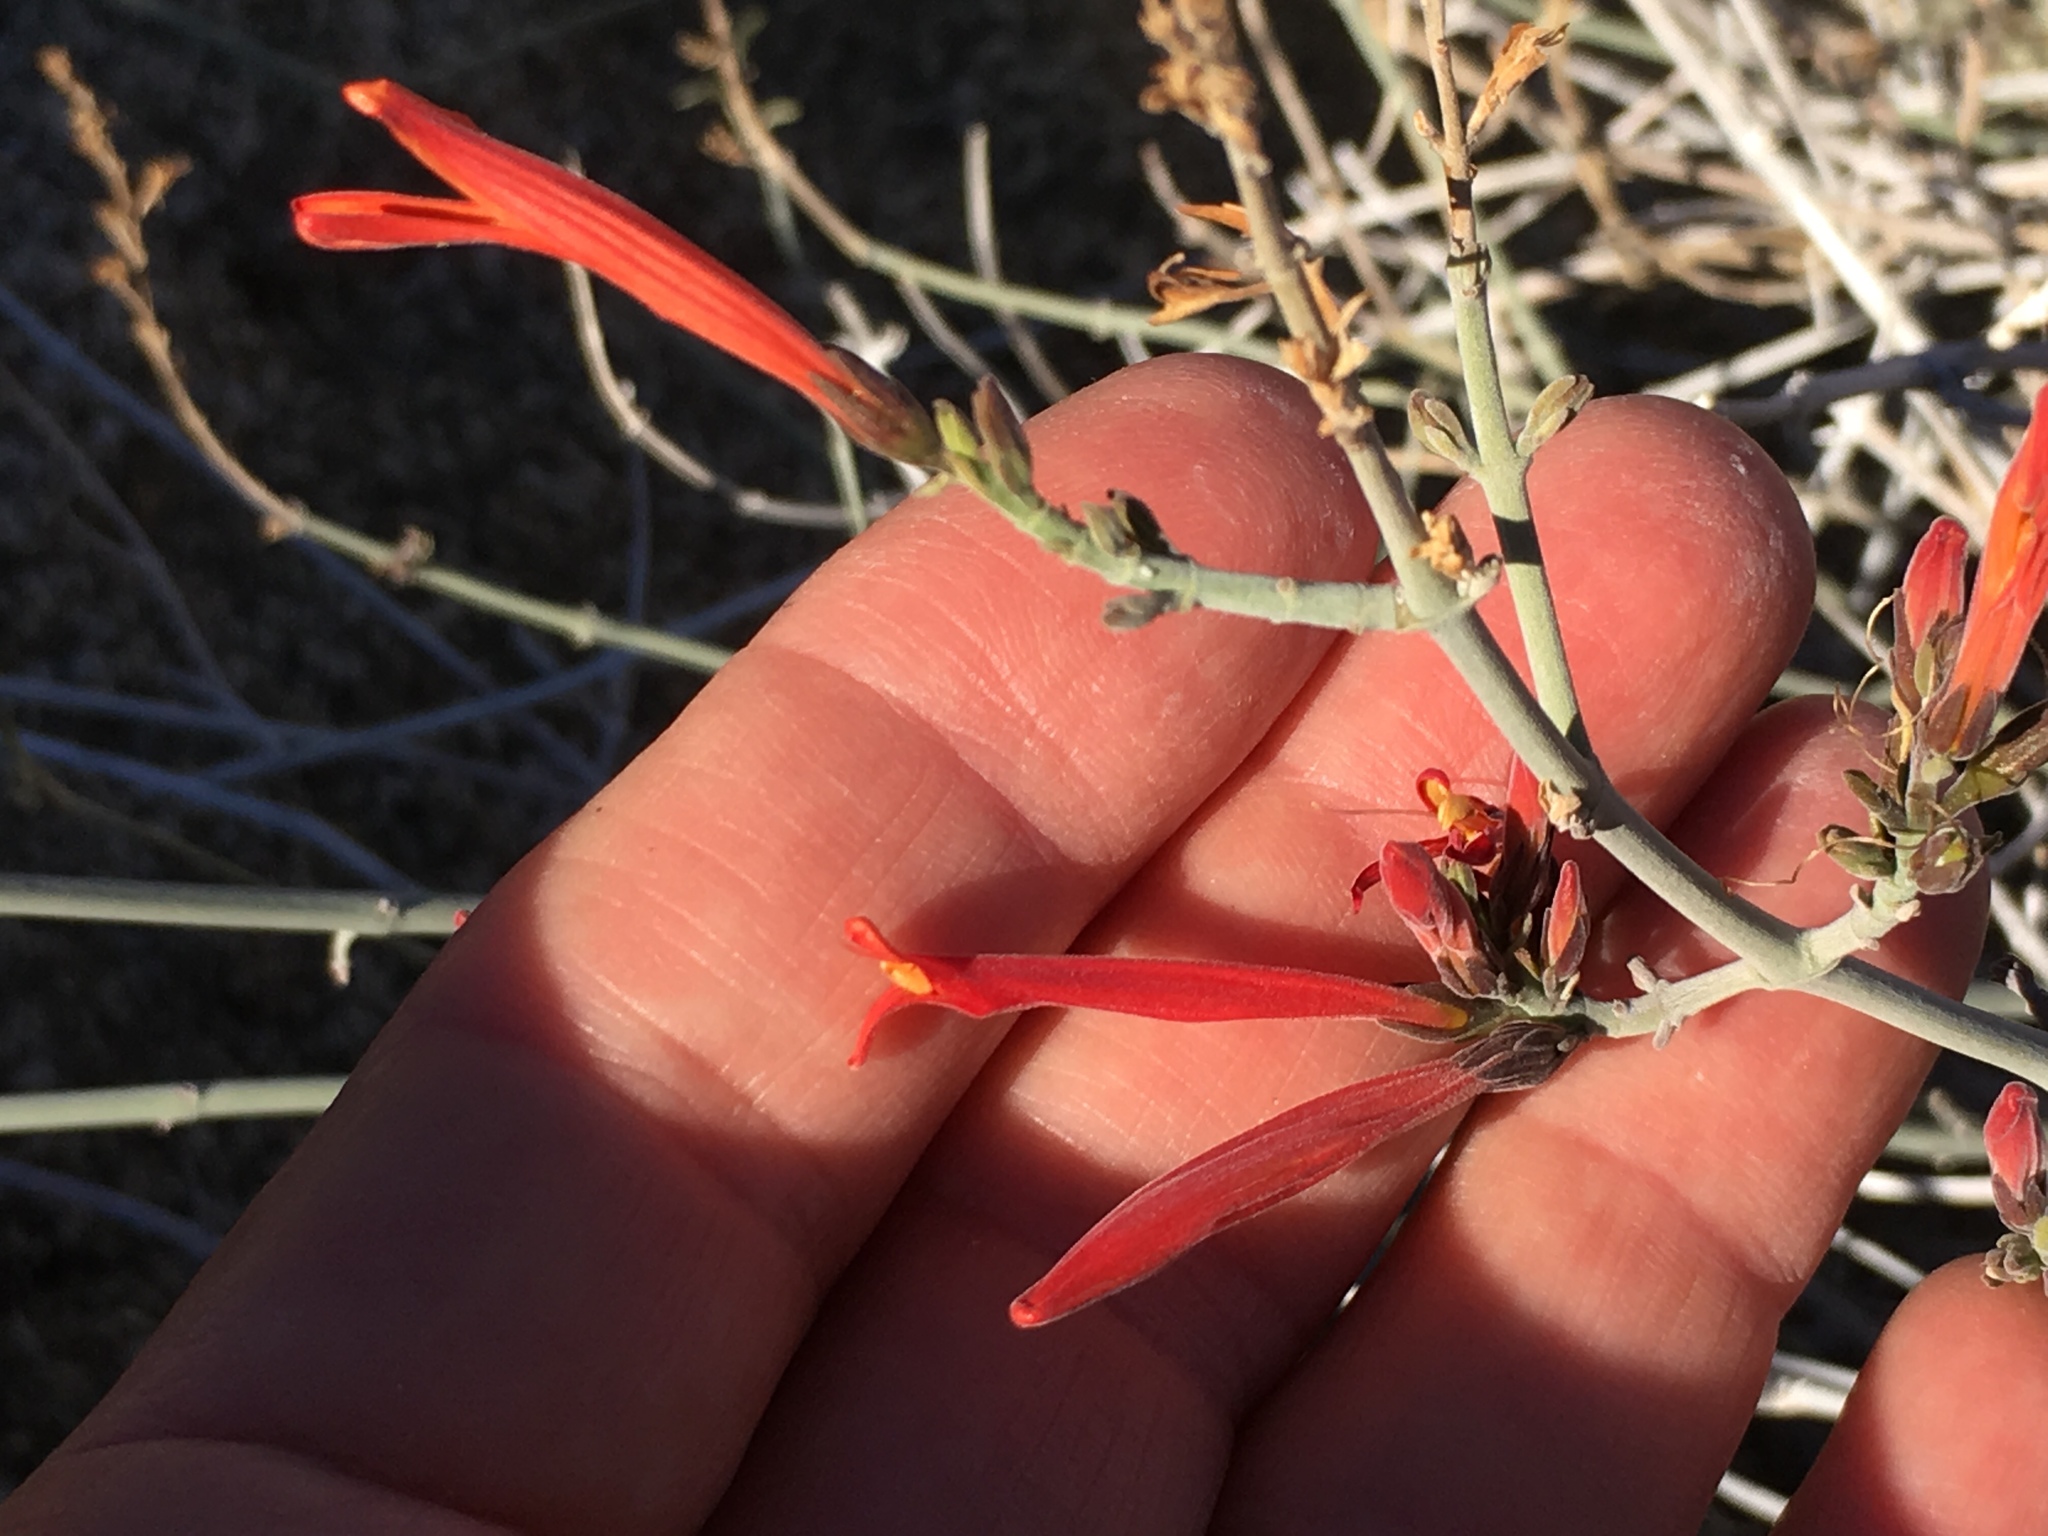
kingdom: Plantae
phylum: Tracheophyta
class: Magnoliopsida
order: Lamiales
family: Acanthaceae
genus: Justicia
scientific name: Justicia californica
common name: Chuparosa-honeysuckle
